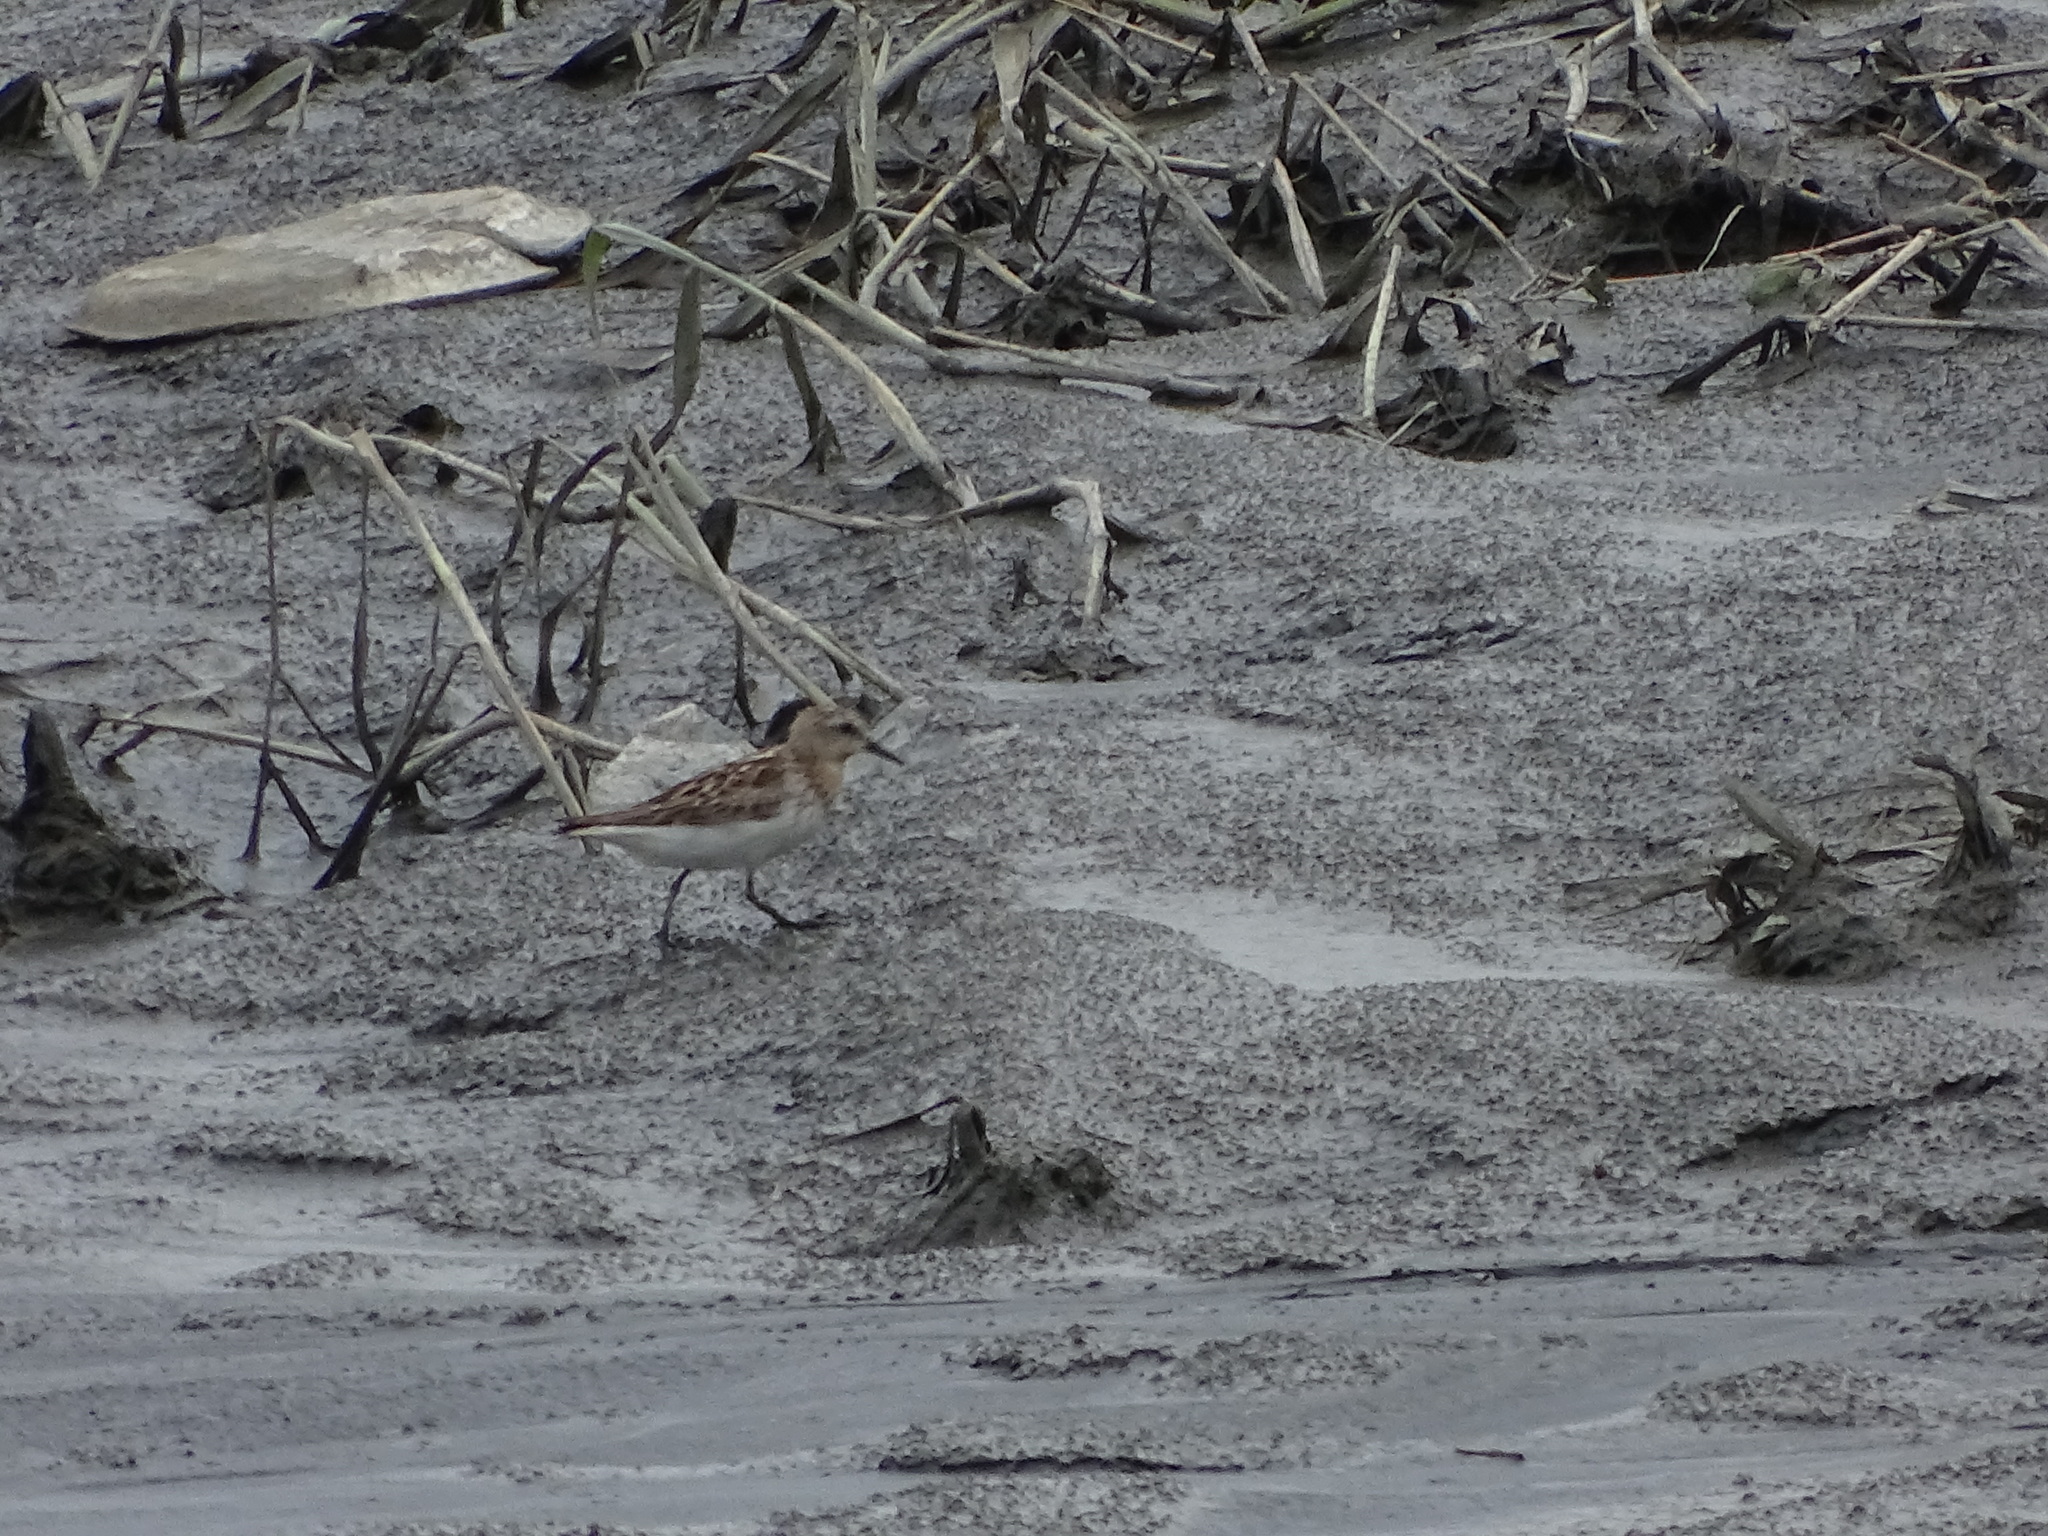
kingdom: Animalia
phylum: Chordata
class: Aves
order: Charadriiformes
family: Scolopacidae
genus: Calidris
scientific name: Calidris ruficollis
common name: Red-necked stint
